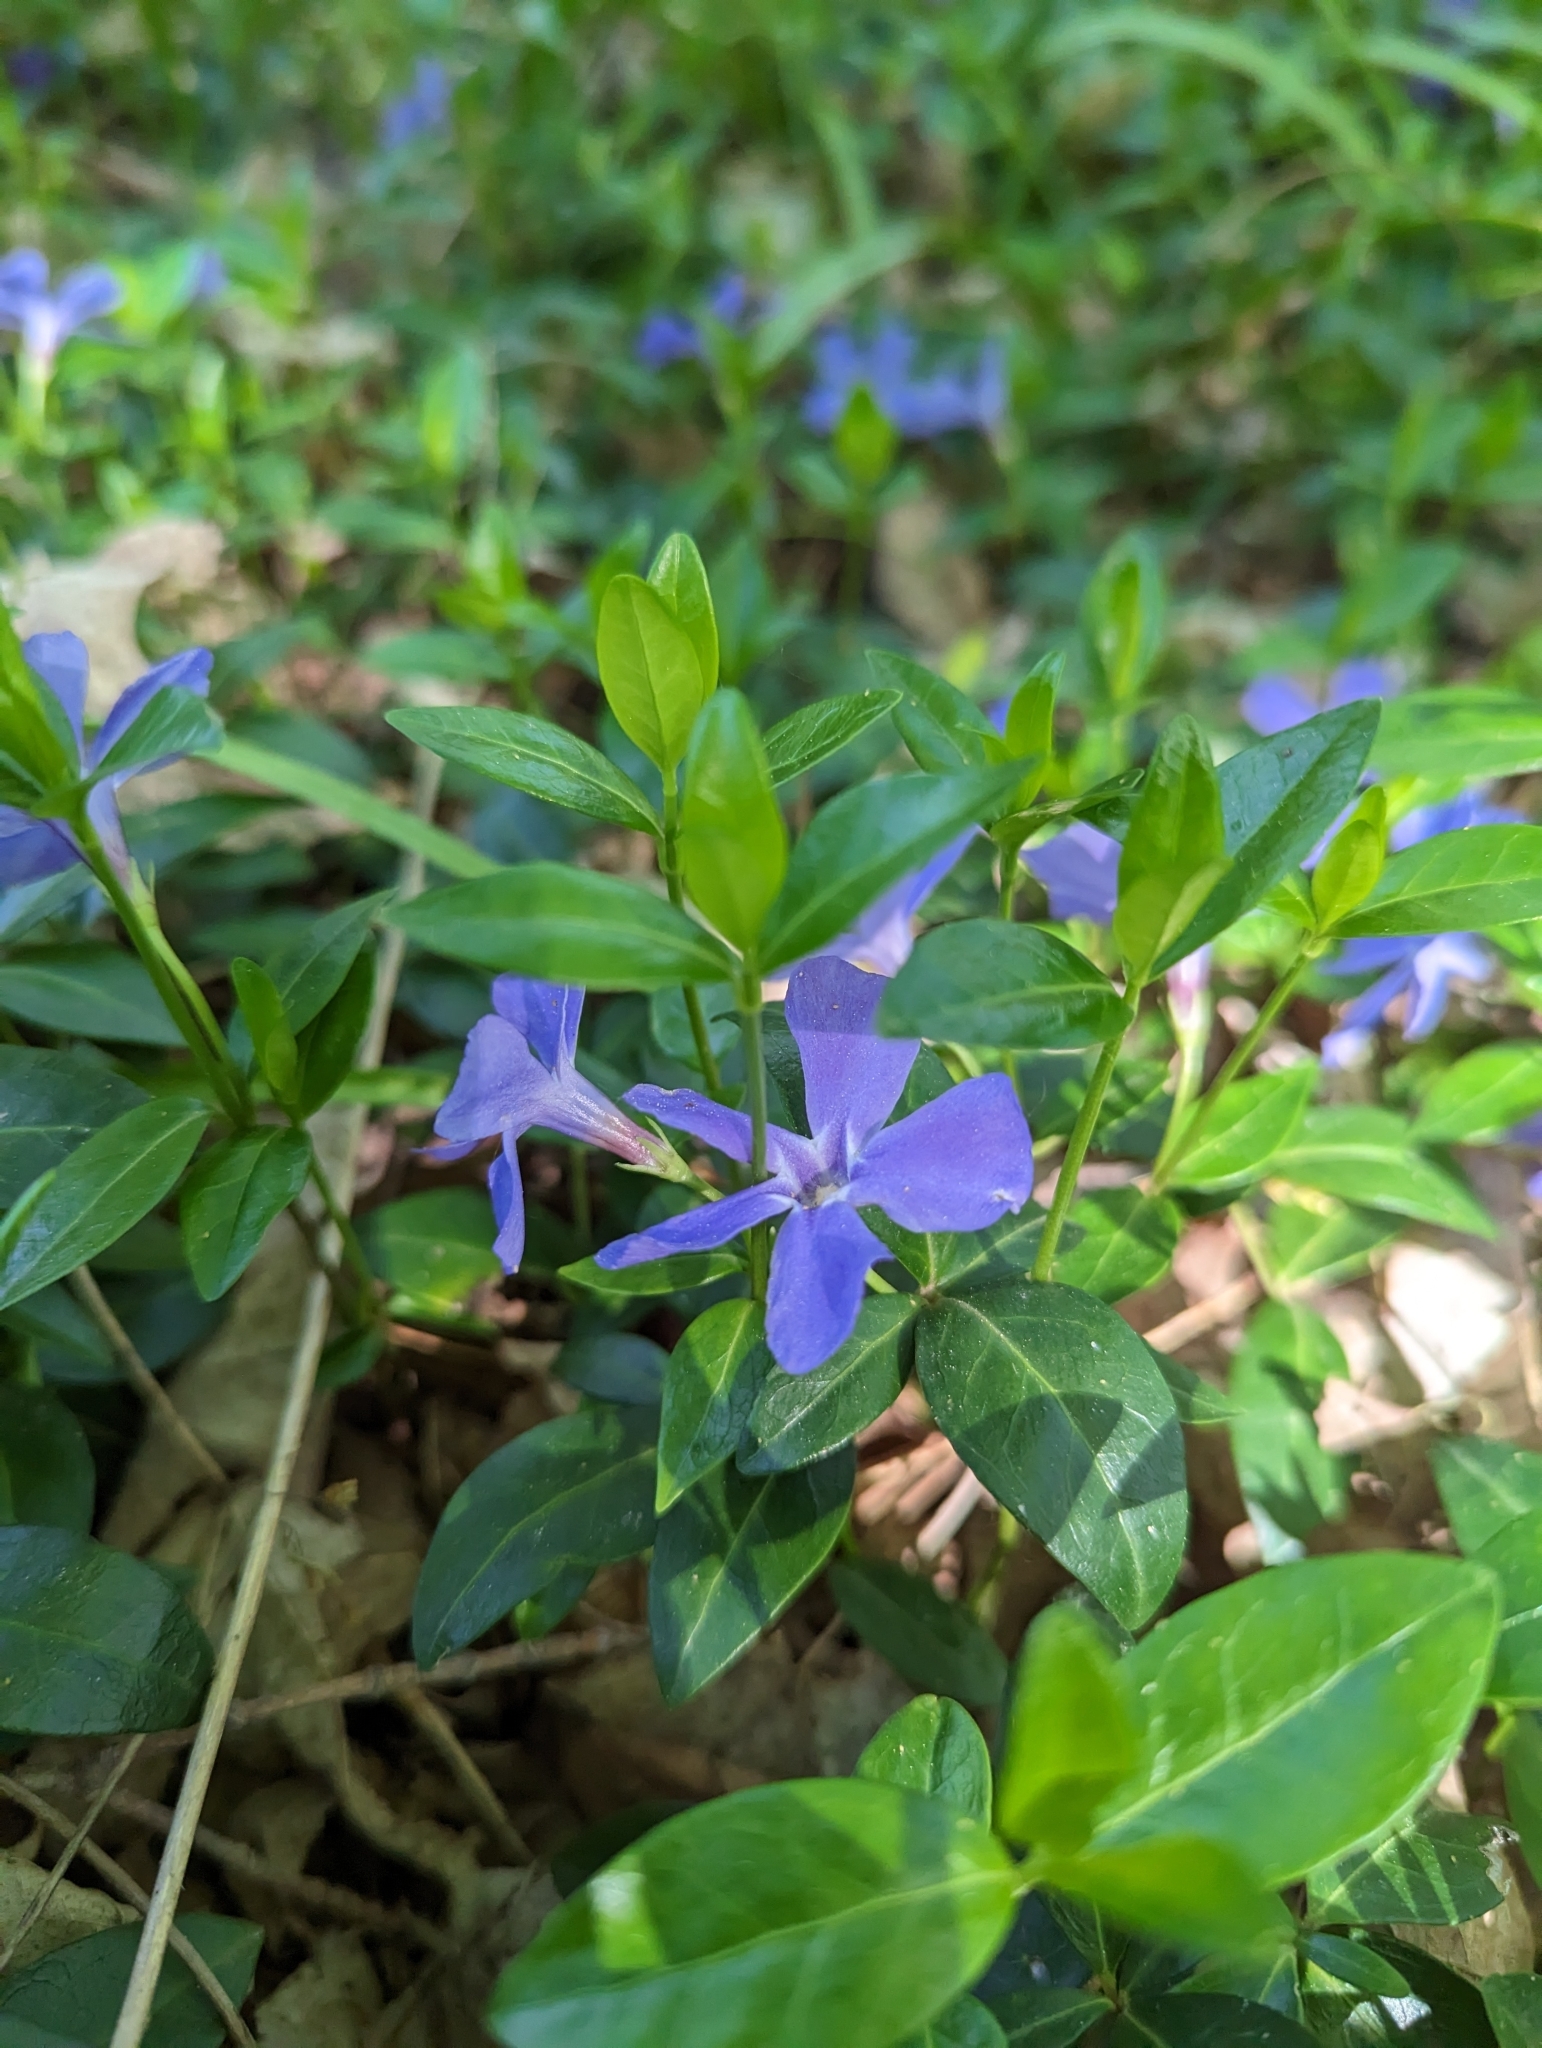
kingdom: Plantae
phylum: Tracheophyta
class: Magnoliopsida
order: Gentianales
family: Apocynaceae
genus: Vinca
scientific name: Vinca minor
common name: Lesser periwinkle
